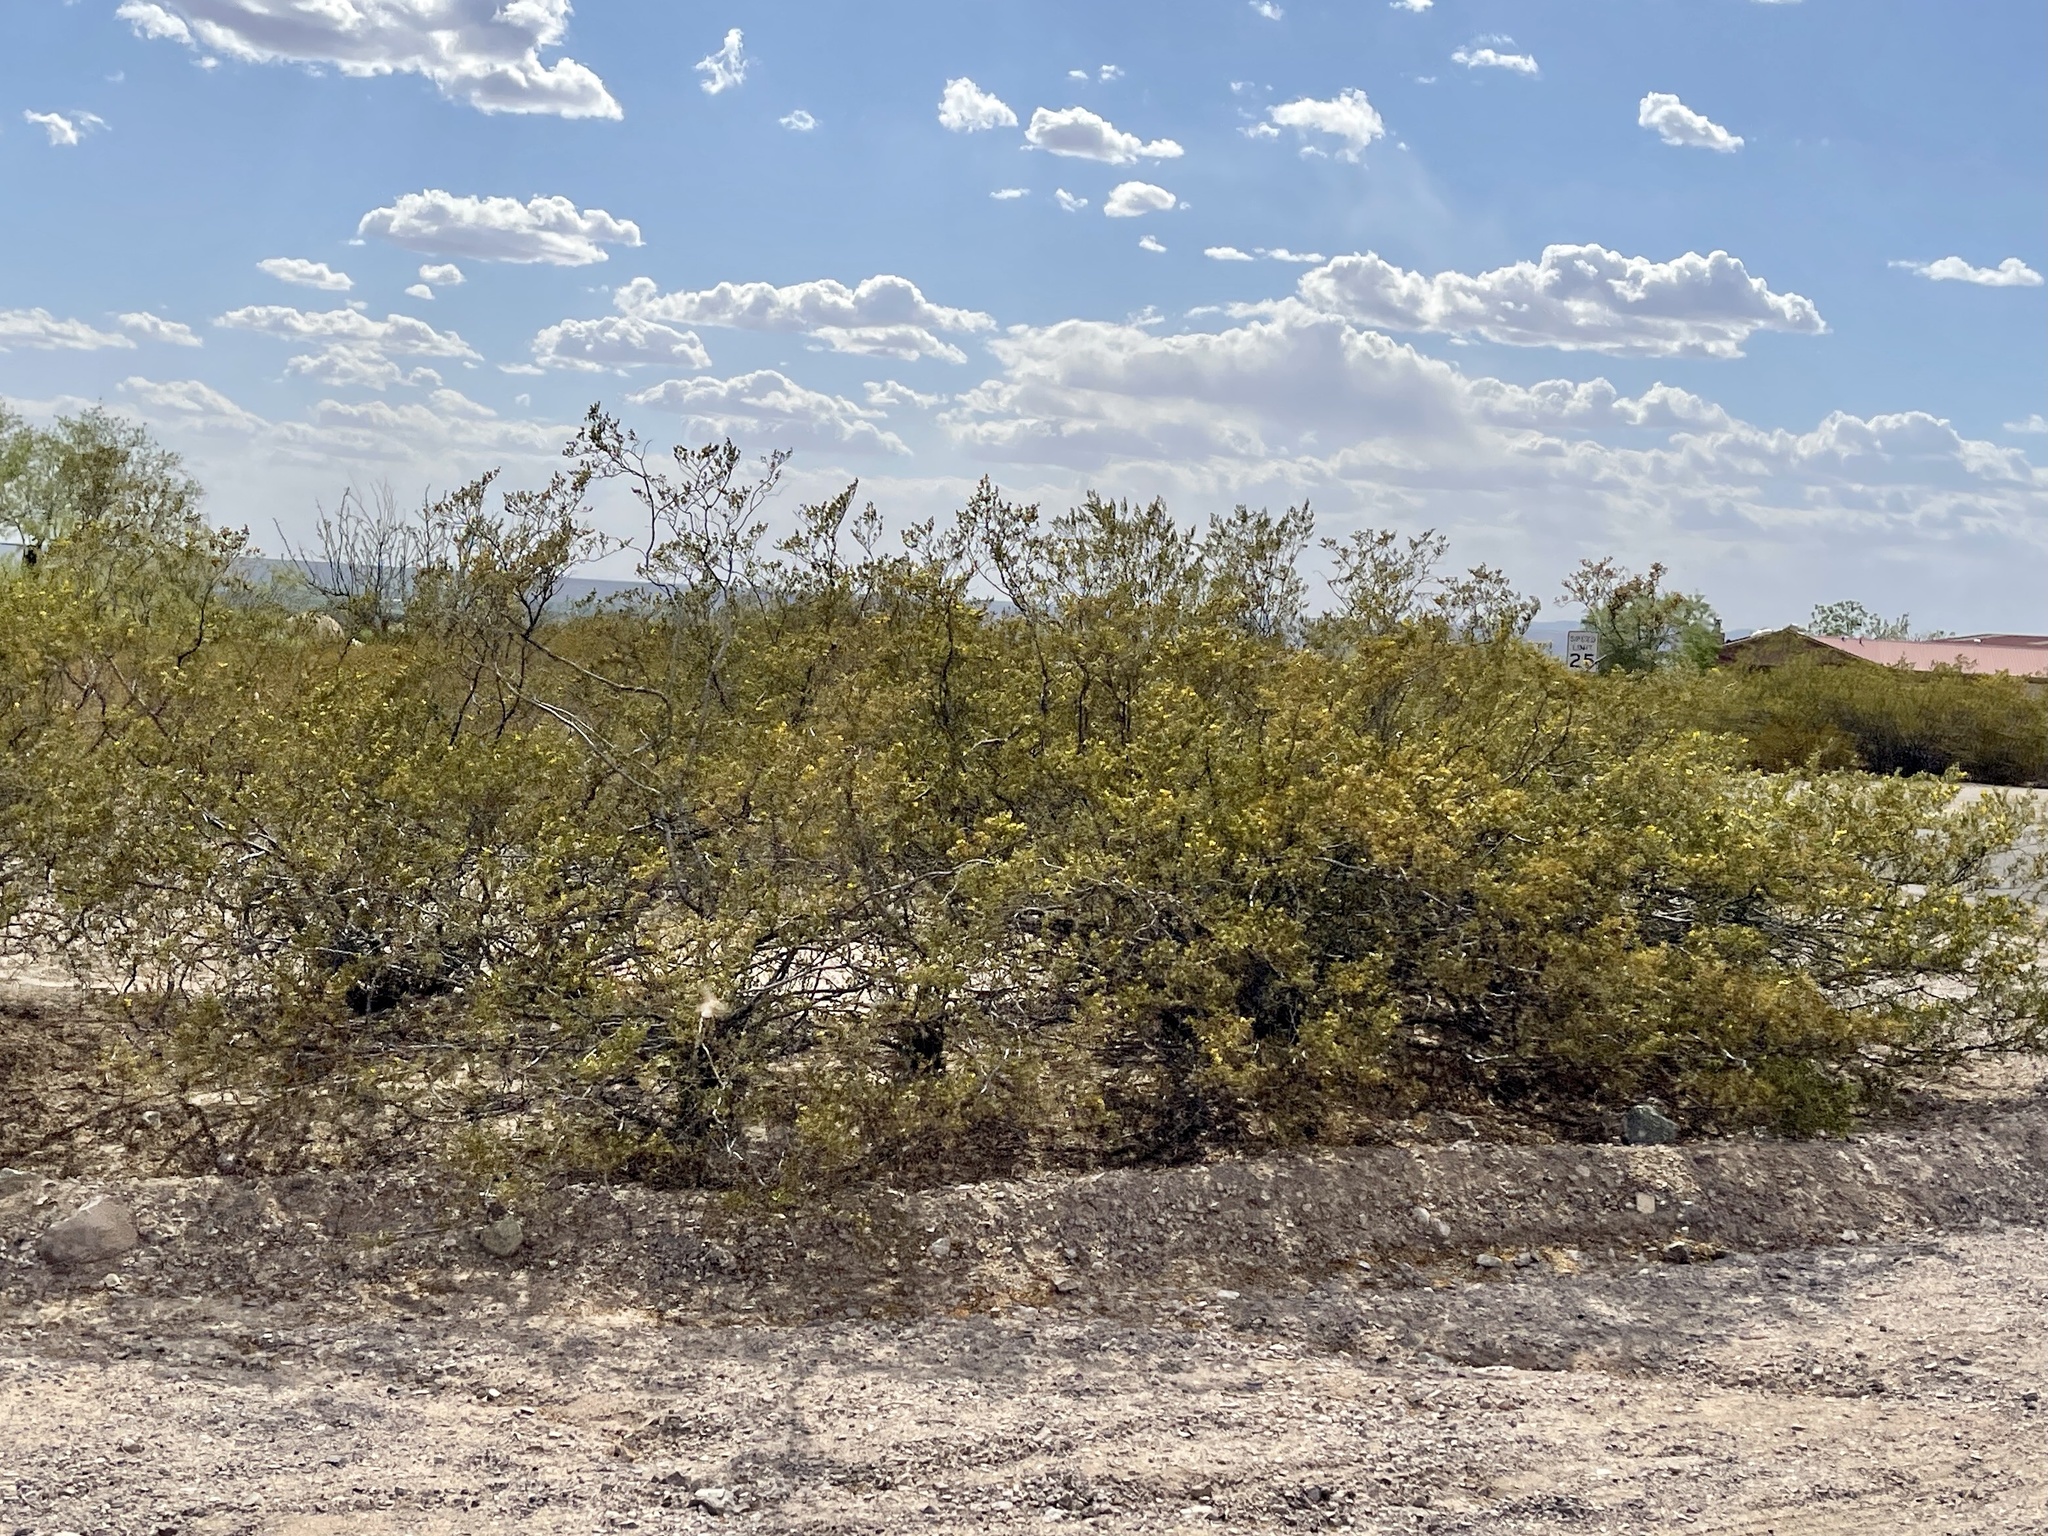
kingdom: Plantae
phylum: Tracheophyta
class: Magnoliopsida
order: Zygophyllales
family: Zygophyllaceae
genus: Larrea
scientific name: Larrea tridentata
